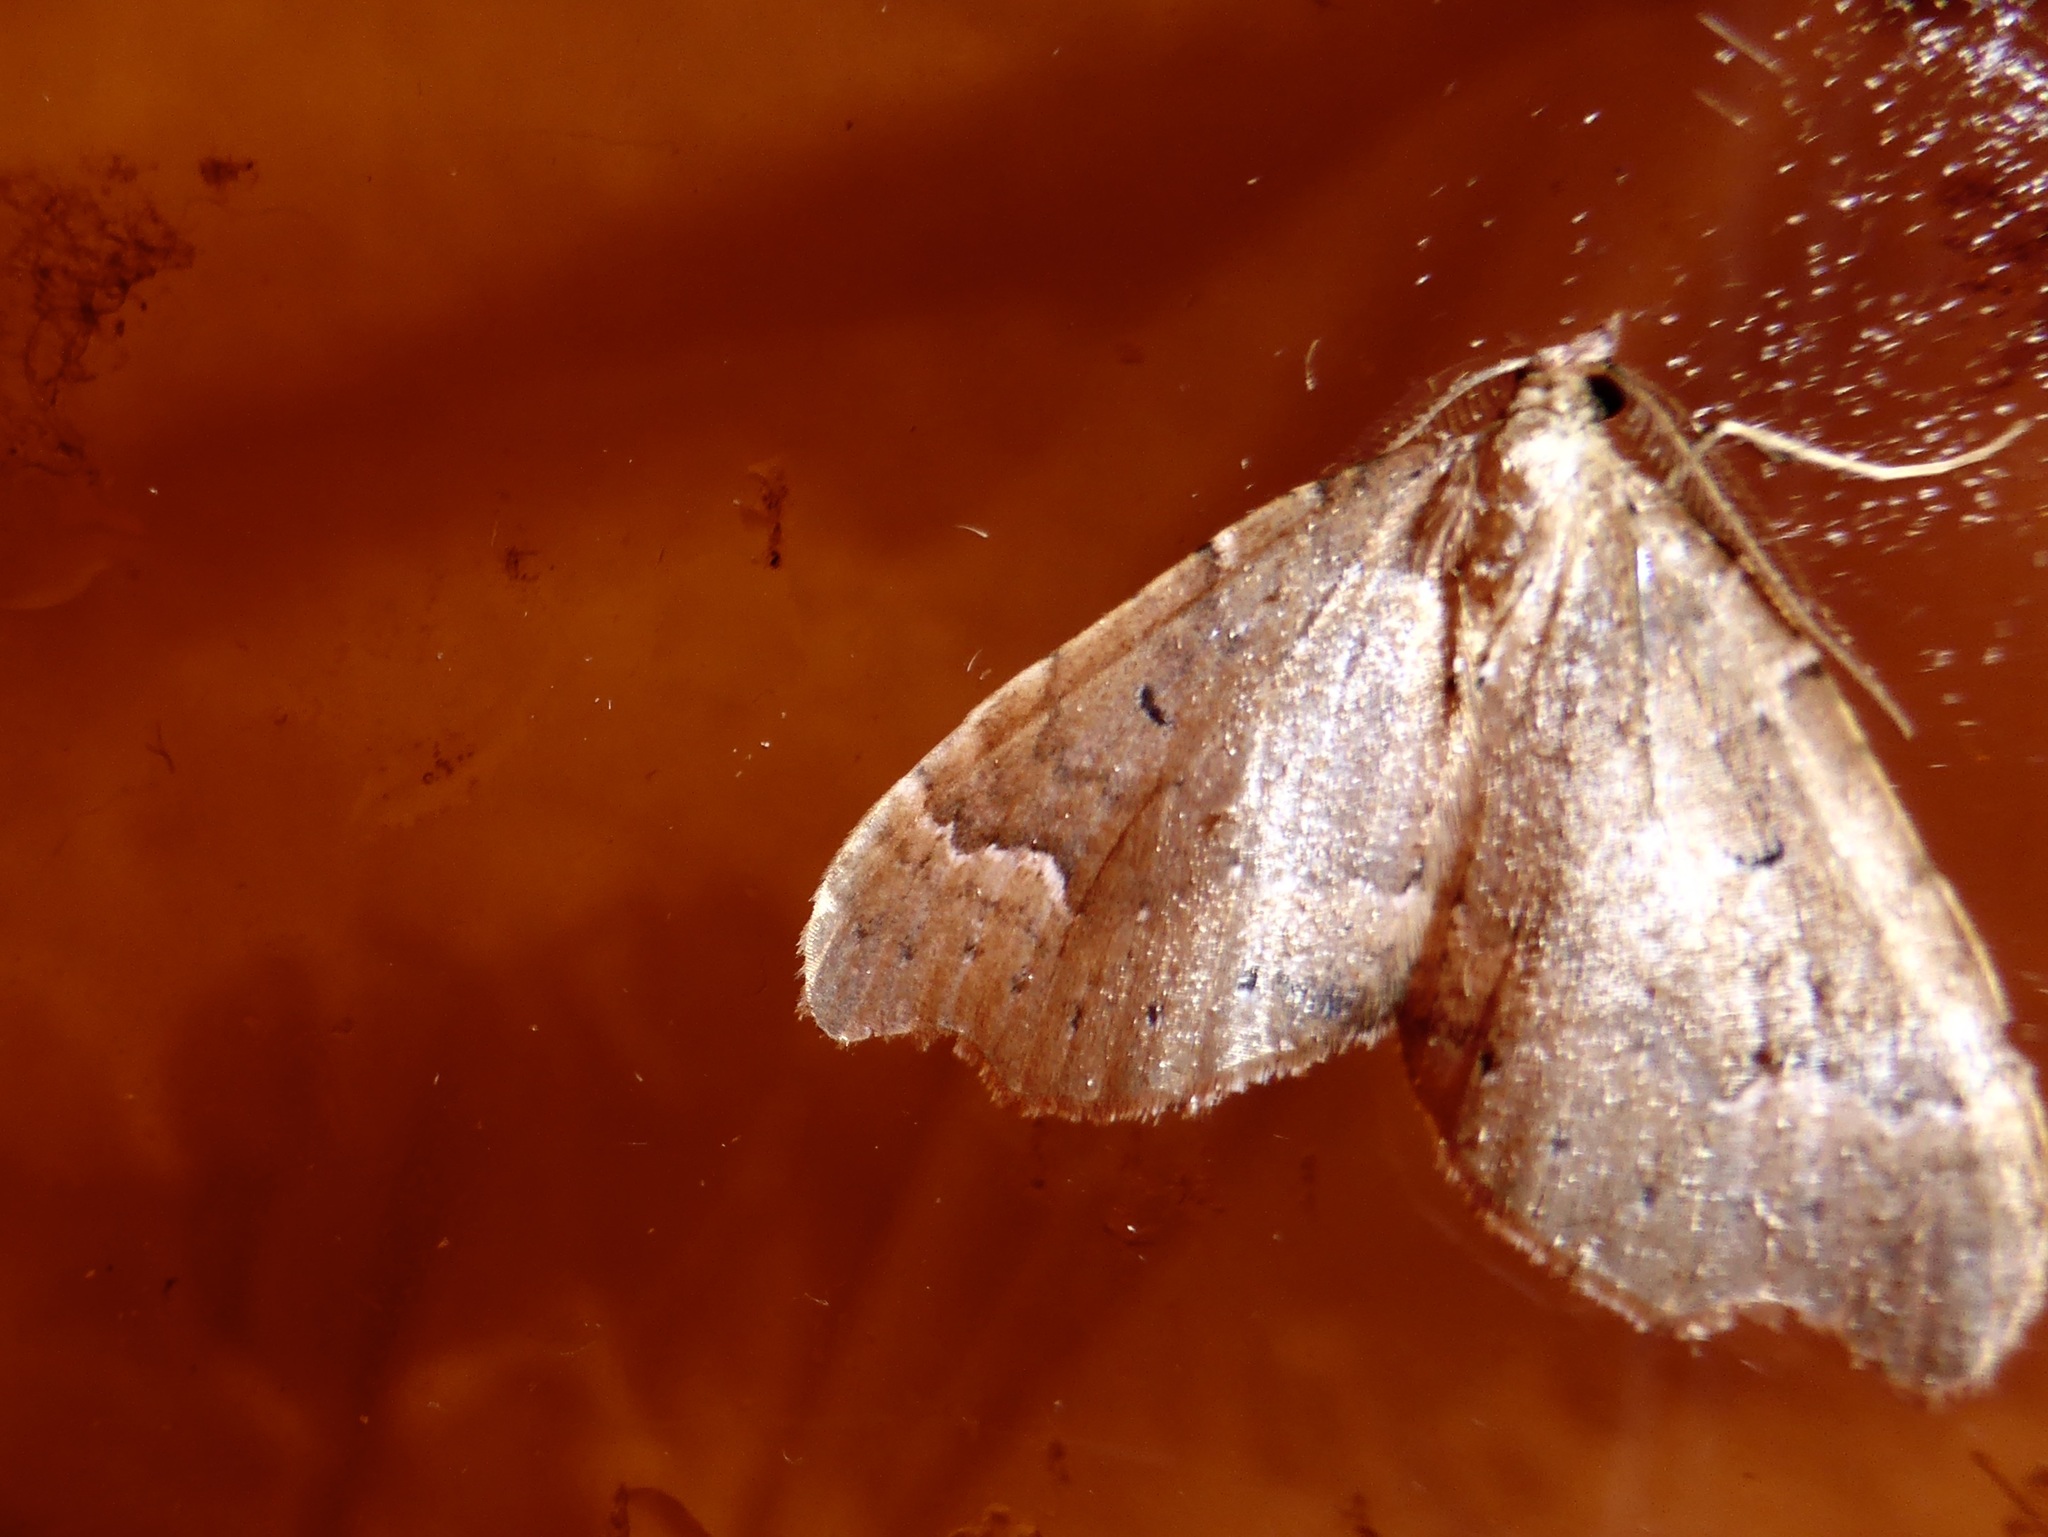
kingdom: Animalia
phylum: Arthropoda
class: Insecta
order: Lepidoptera
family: Geometridae
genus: Asaphodes
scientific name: Asaphodes camelias
